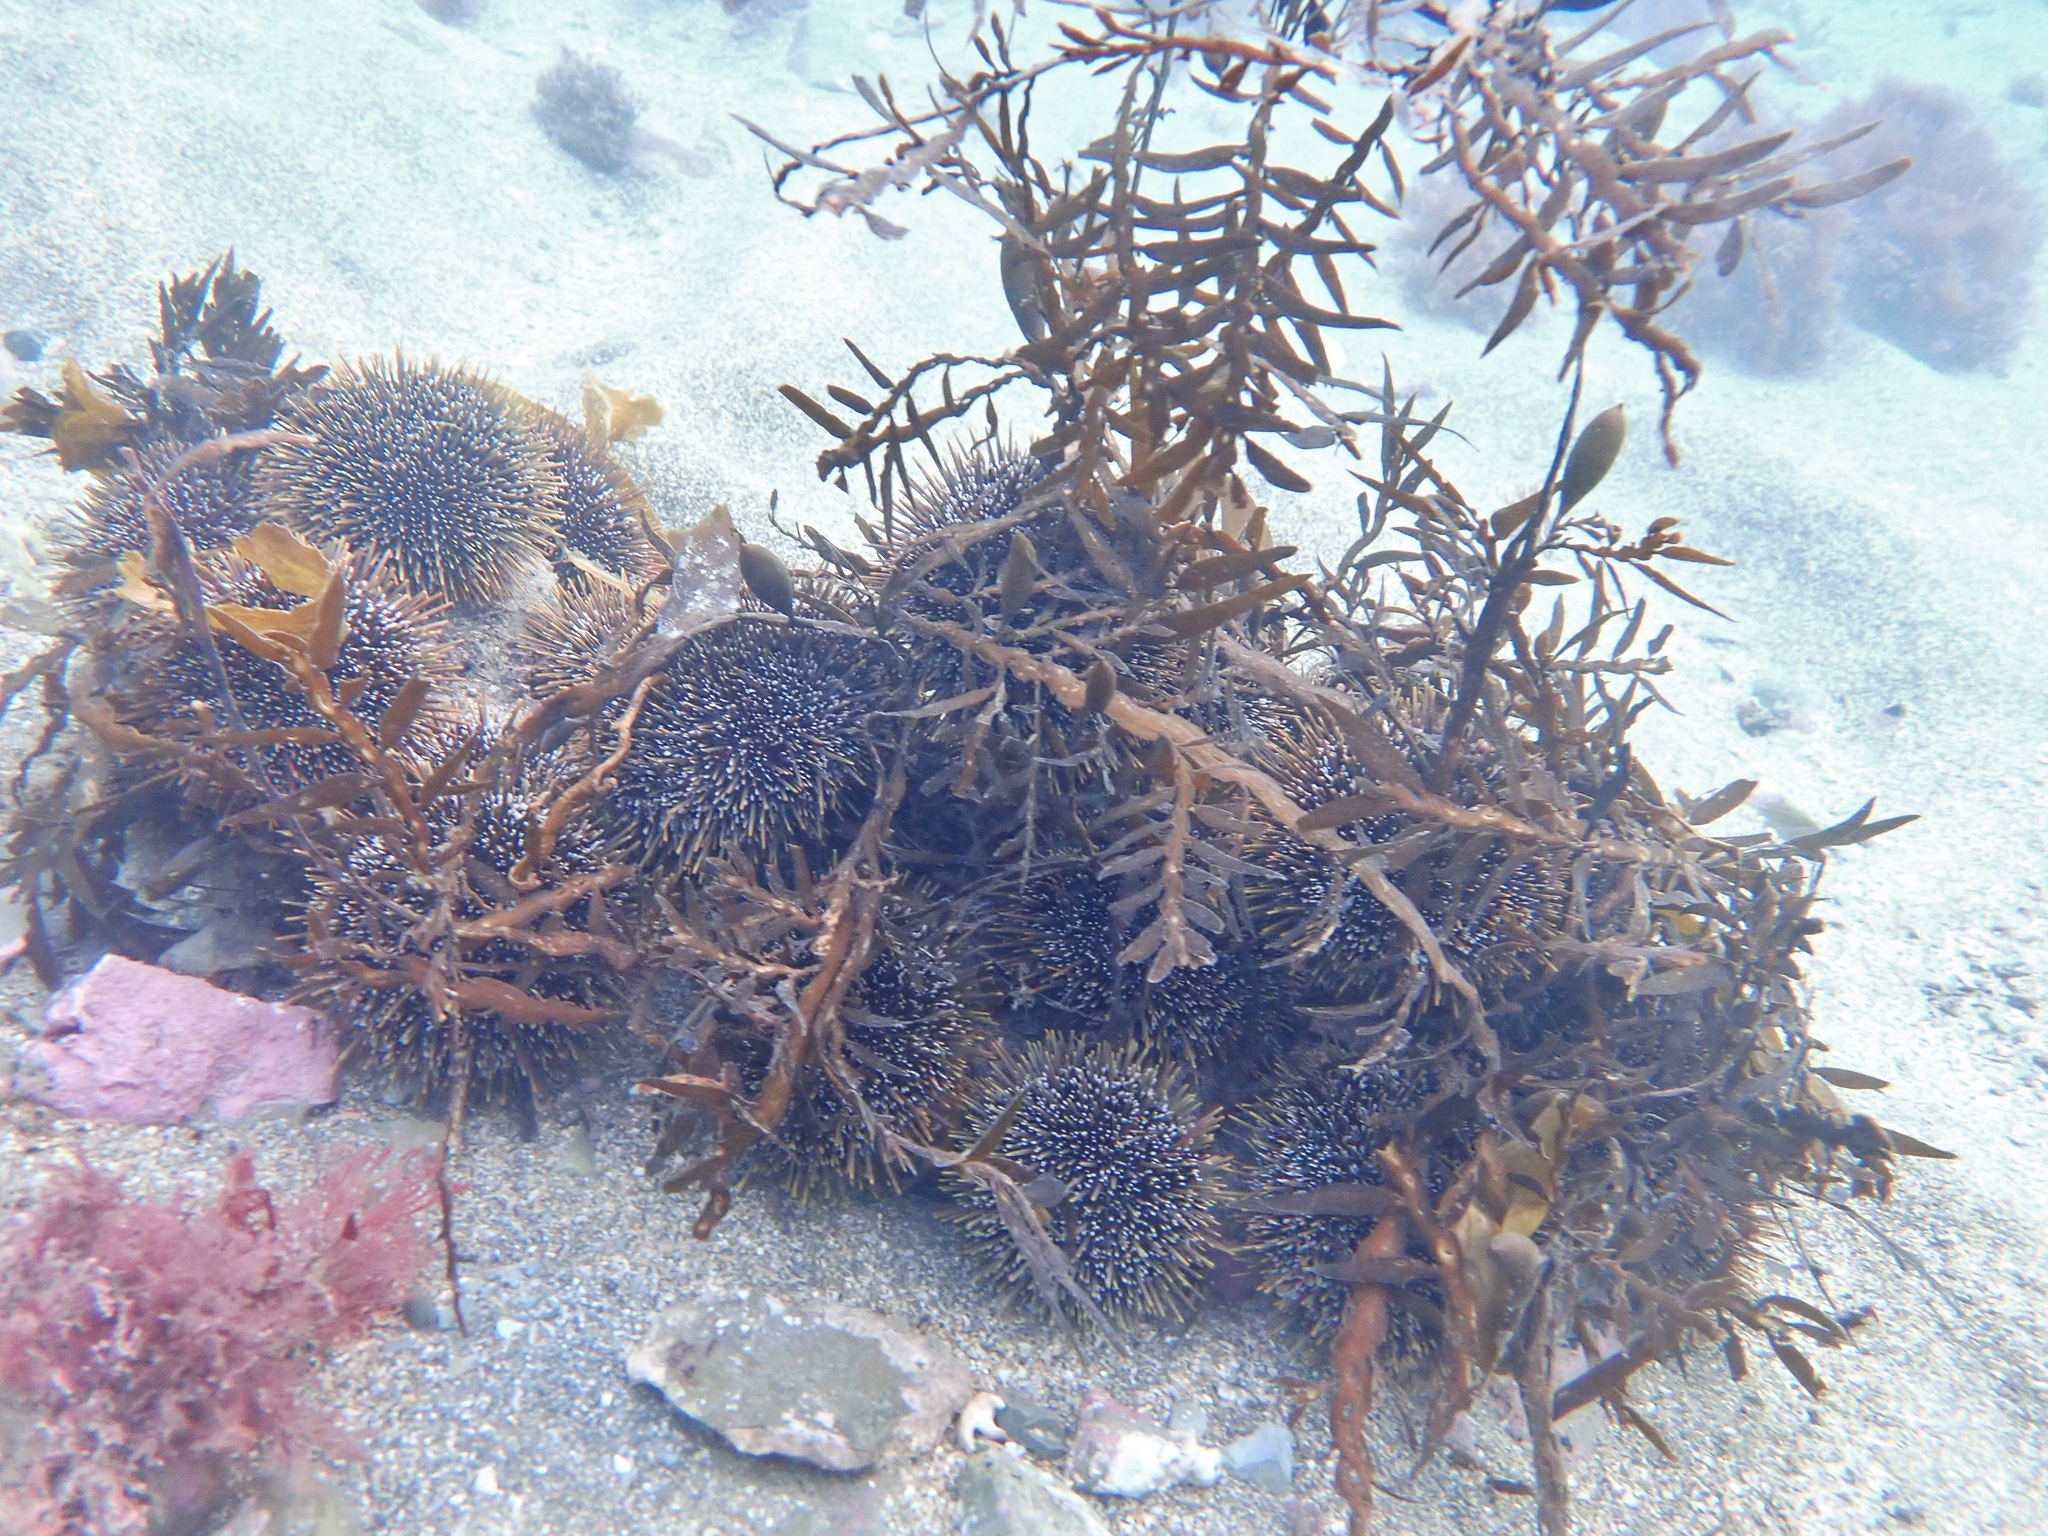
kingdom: Animalia
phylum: Echinodermata
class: Echinoidea
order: Camarodonta
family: Echinometridae
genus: Evechinus
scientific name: Evechinus chloroticus
